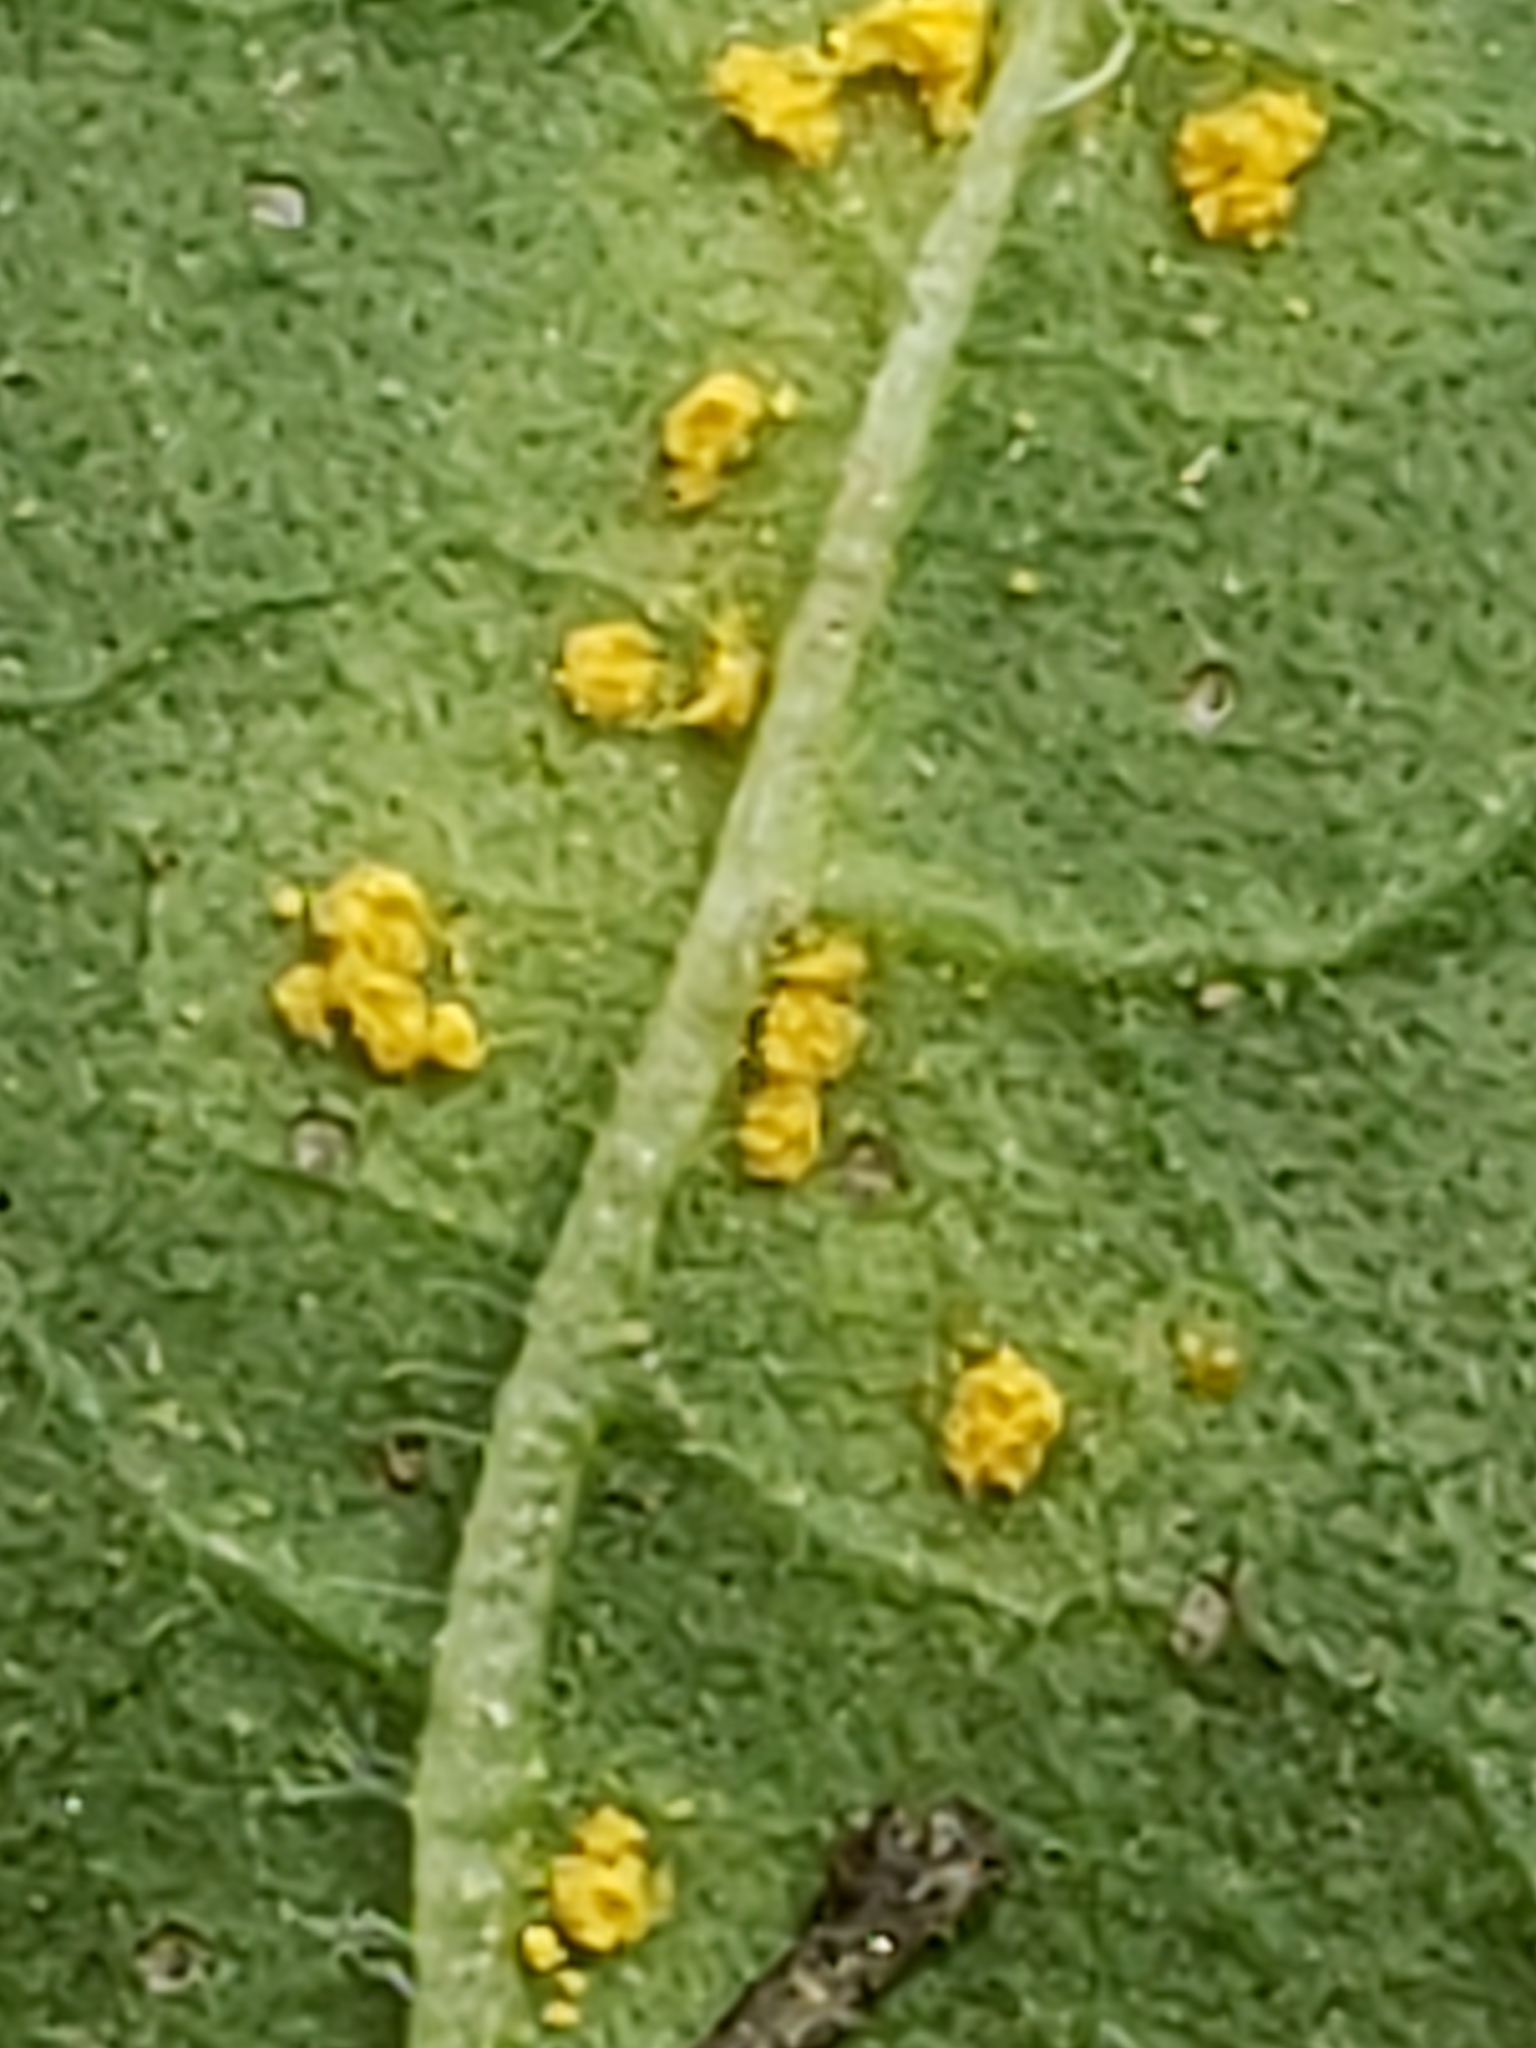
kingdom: Fungi
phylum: Basidiomycota
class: Pucciniomycetes
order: Pucciniales
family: Coleosporiaceae
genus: Coleosporium
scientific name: Coleosporium elephantopodis
